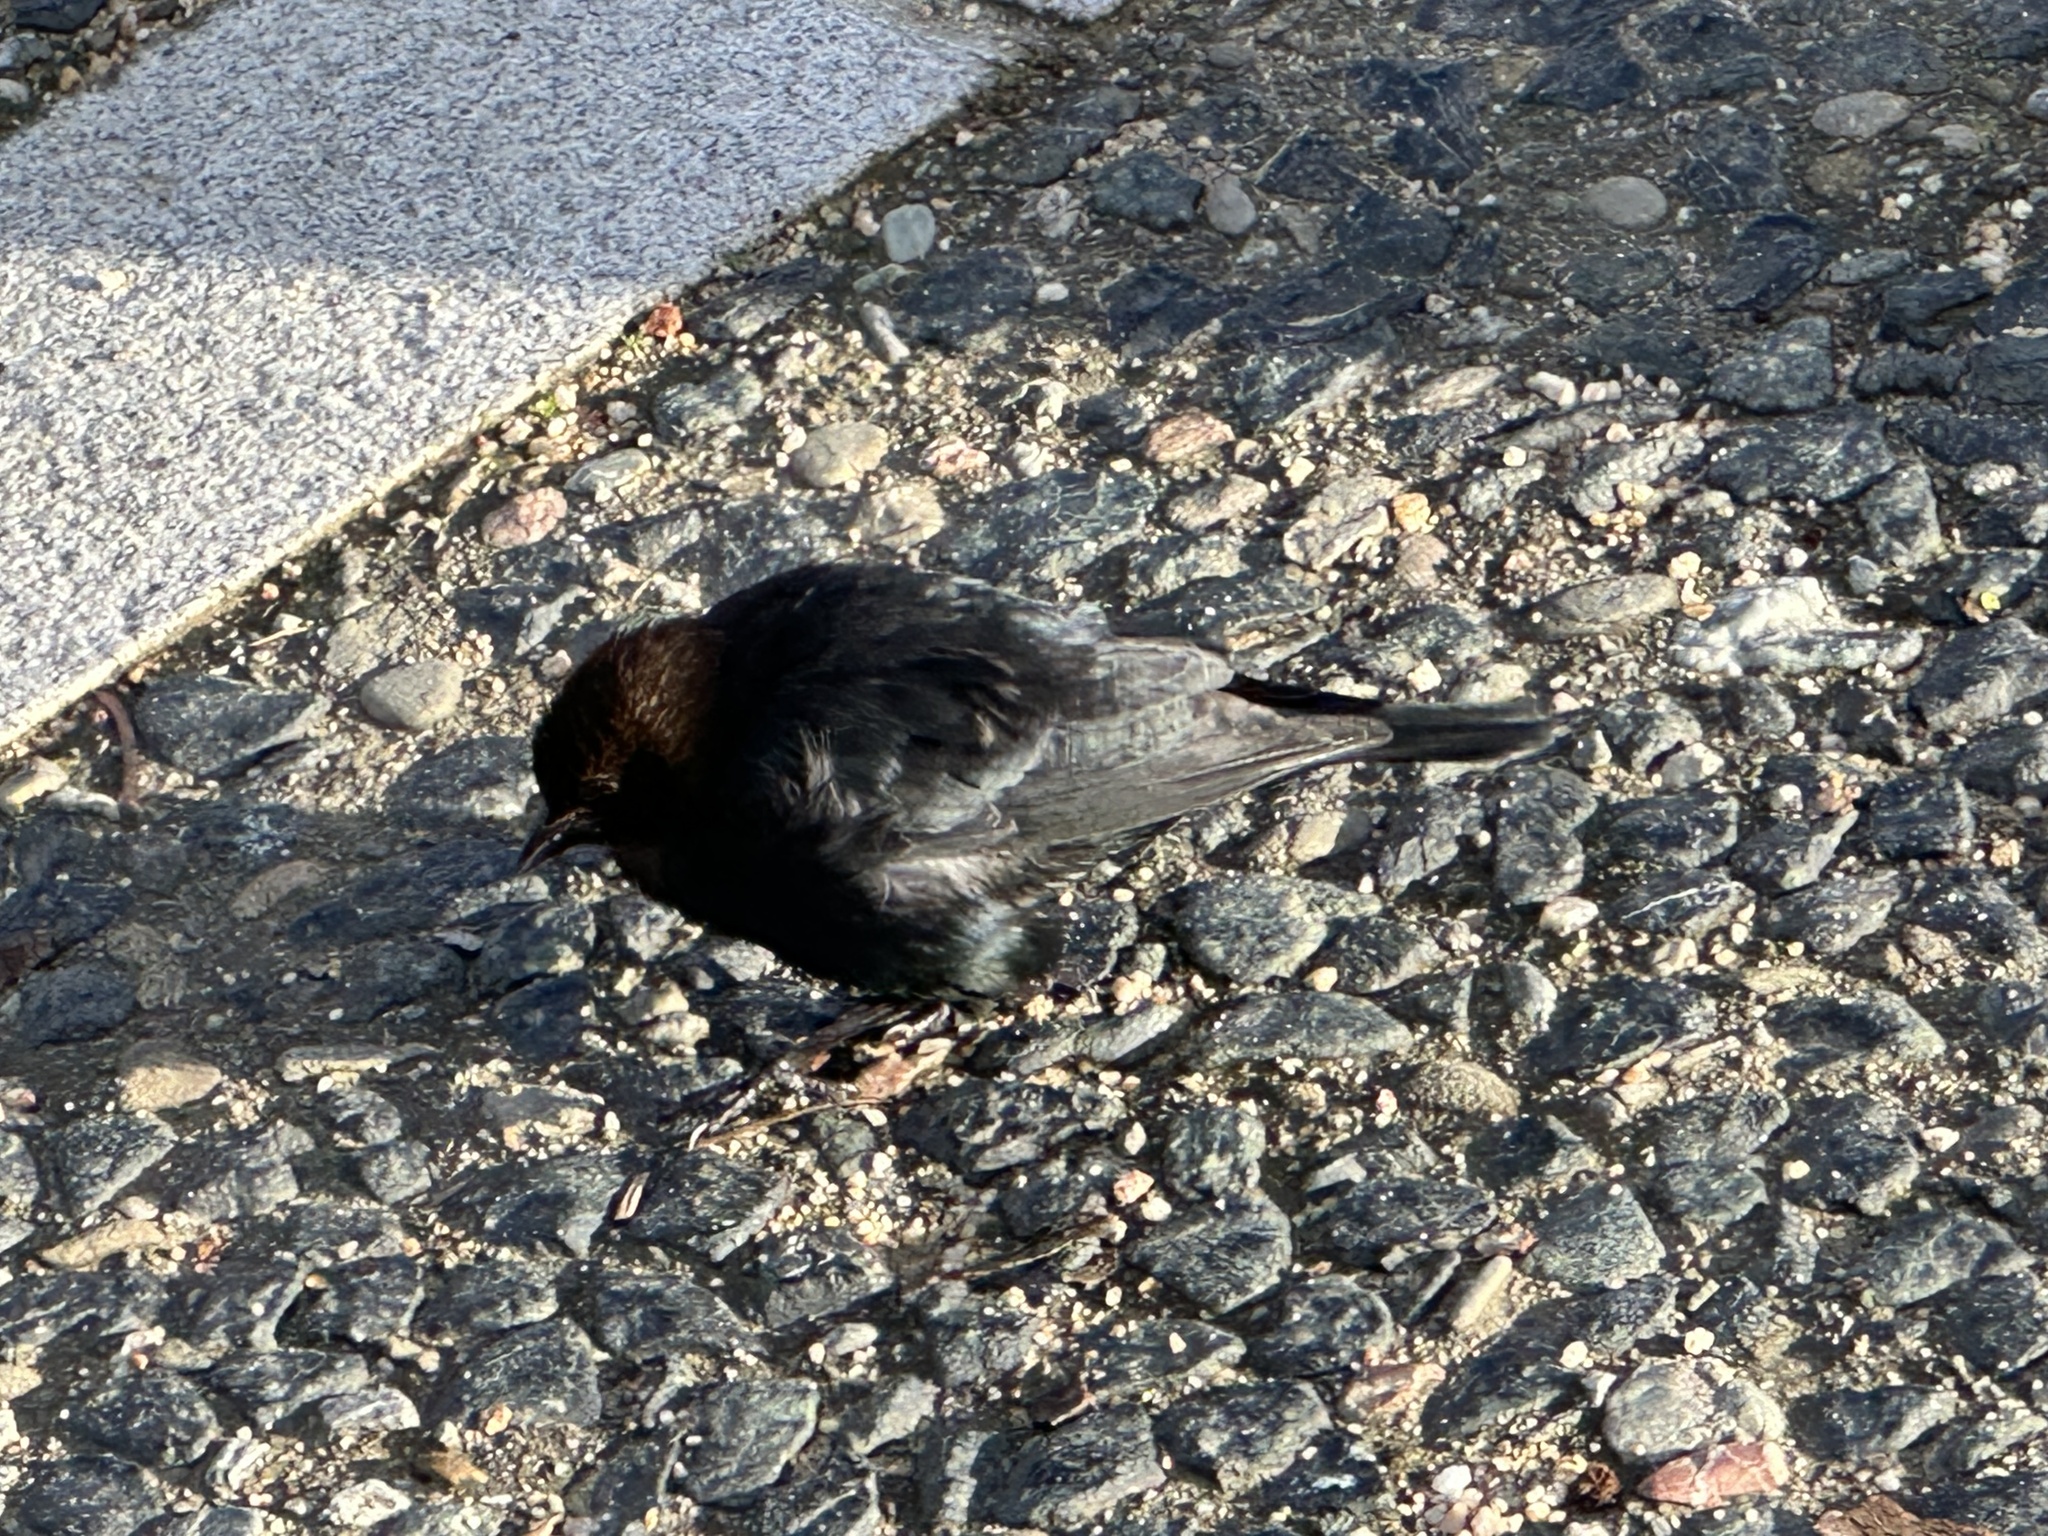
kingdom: Animalia
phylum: Chordata
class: Aves
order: Passeriformes
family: Icteridae
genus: Molothrus
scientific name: Molothrus ater
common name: Brown-headed cowbird
